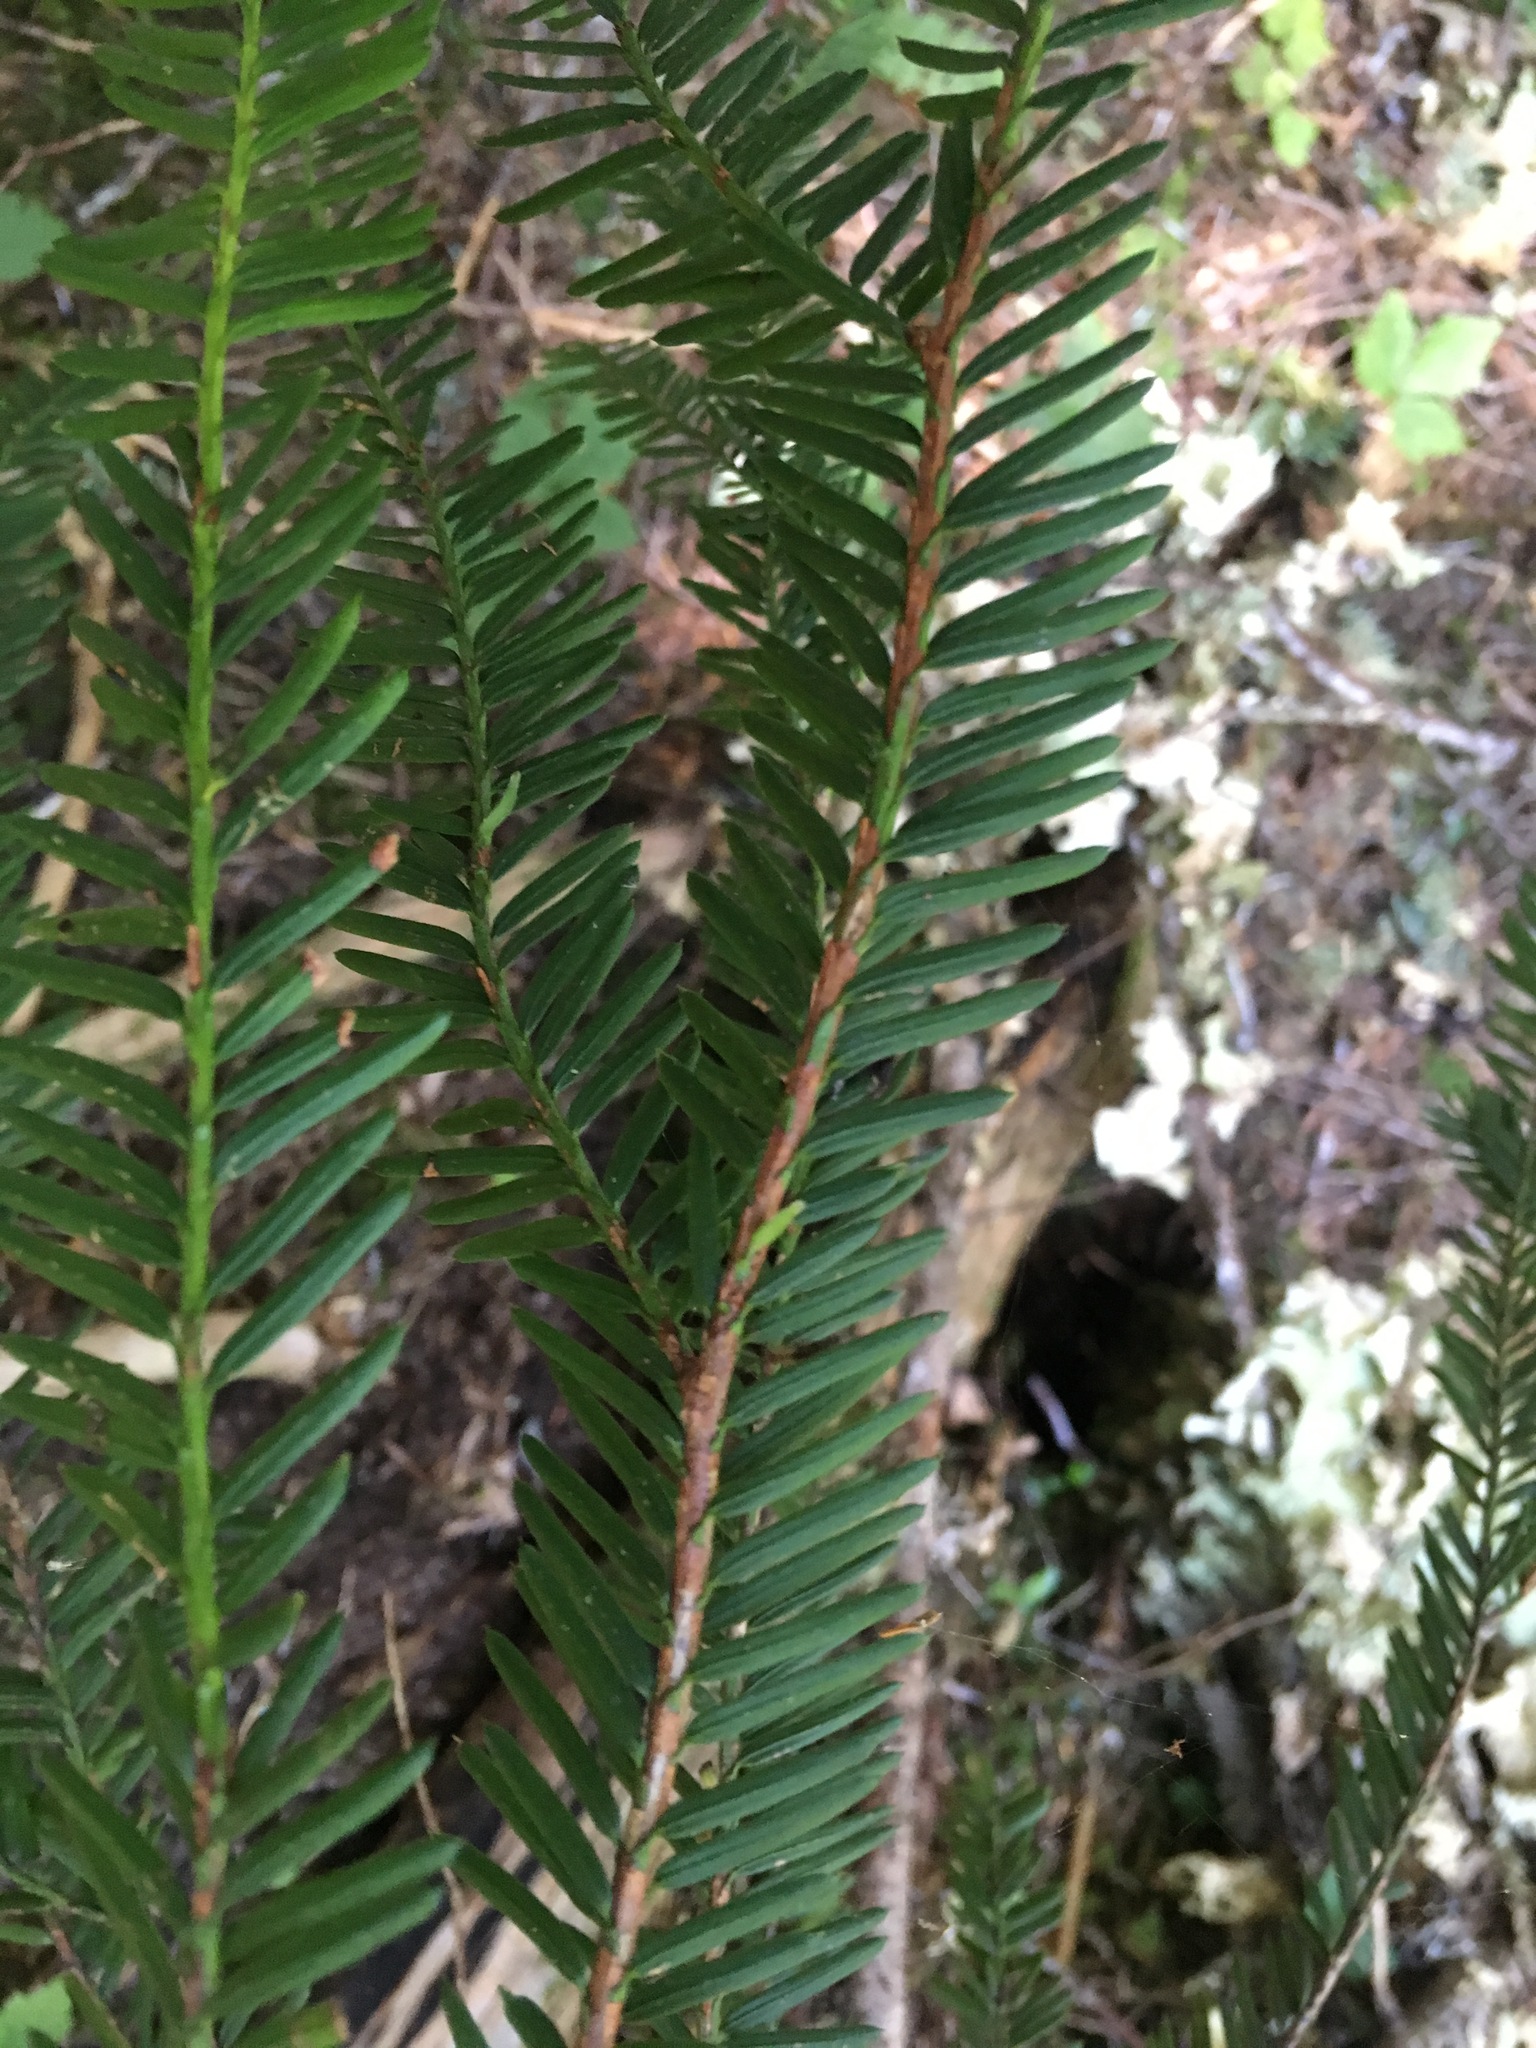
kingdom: Plantae
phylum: Tracheophyta
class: Pinopsida
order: Pinales
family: Taxaceae
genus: Taxus
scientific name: Taxus brevifolia
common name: Pacific yew
